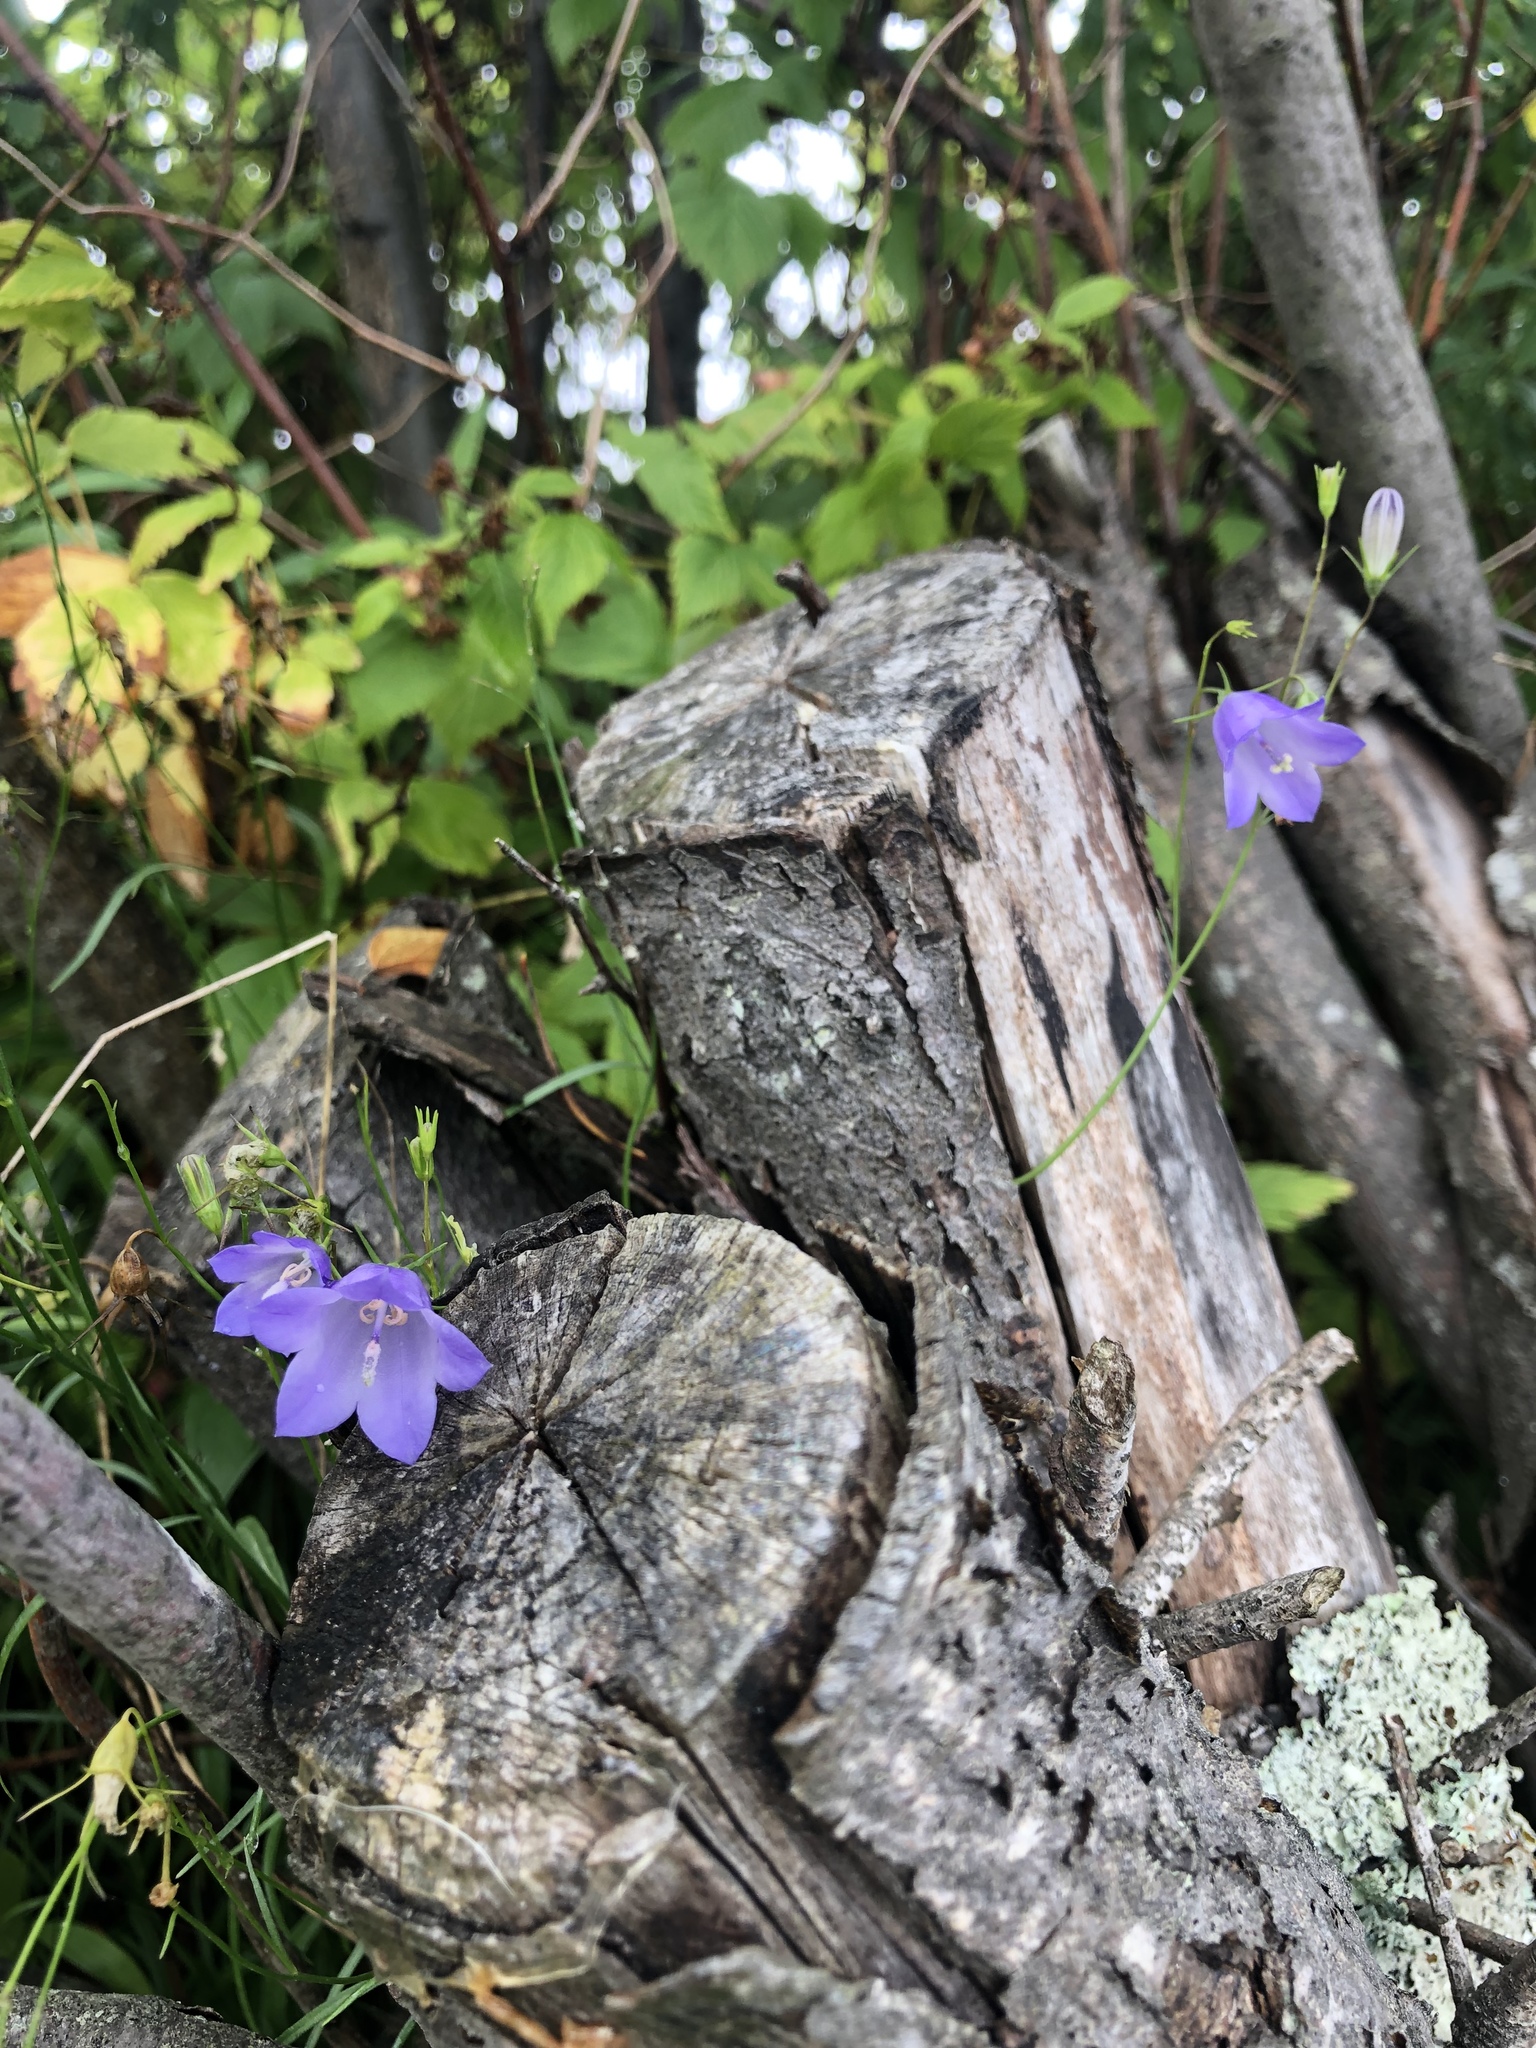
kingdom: Plantae
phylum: Tracheophyta
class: Magnoliopsida
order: Asterales
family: Campanulaceae
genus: Campanula
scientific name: Campanula intercedens
